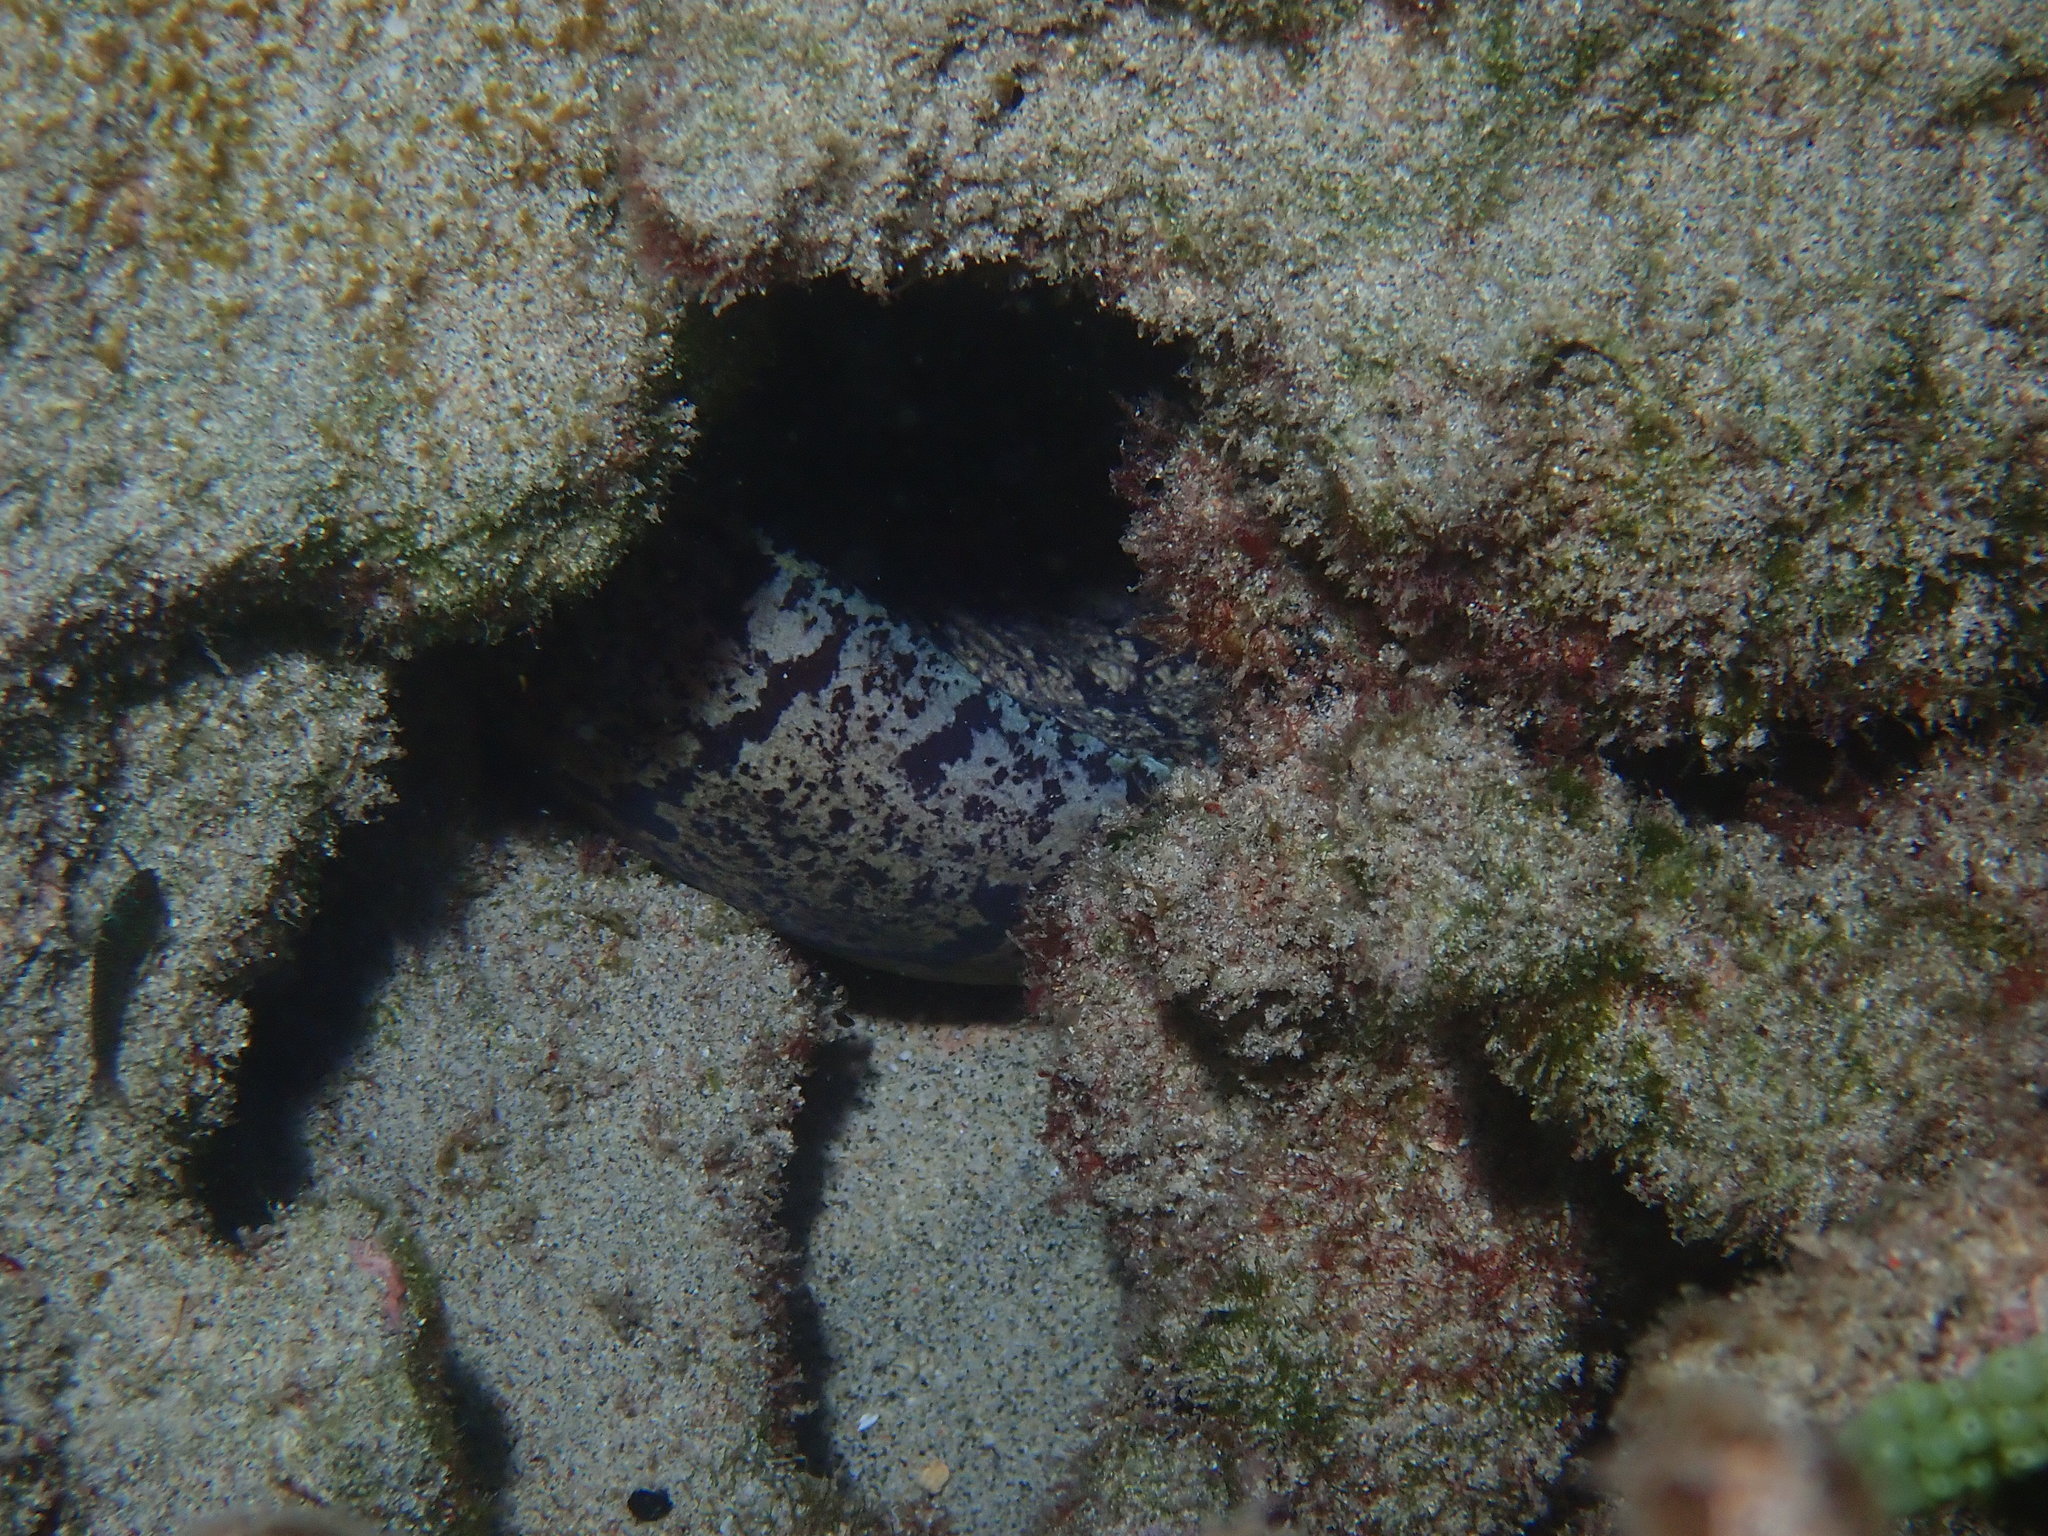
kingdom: Animalia
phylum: Chordata
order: Anguilliformes
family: Muraenidae
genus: Enchelycore
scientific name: Enchelycore ramosa
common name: Mosaic moray
